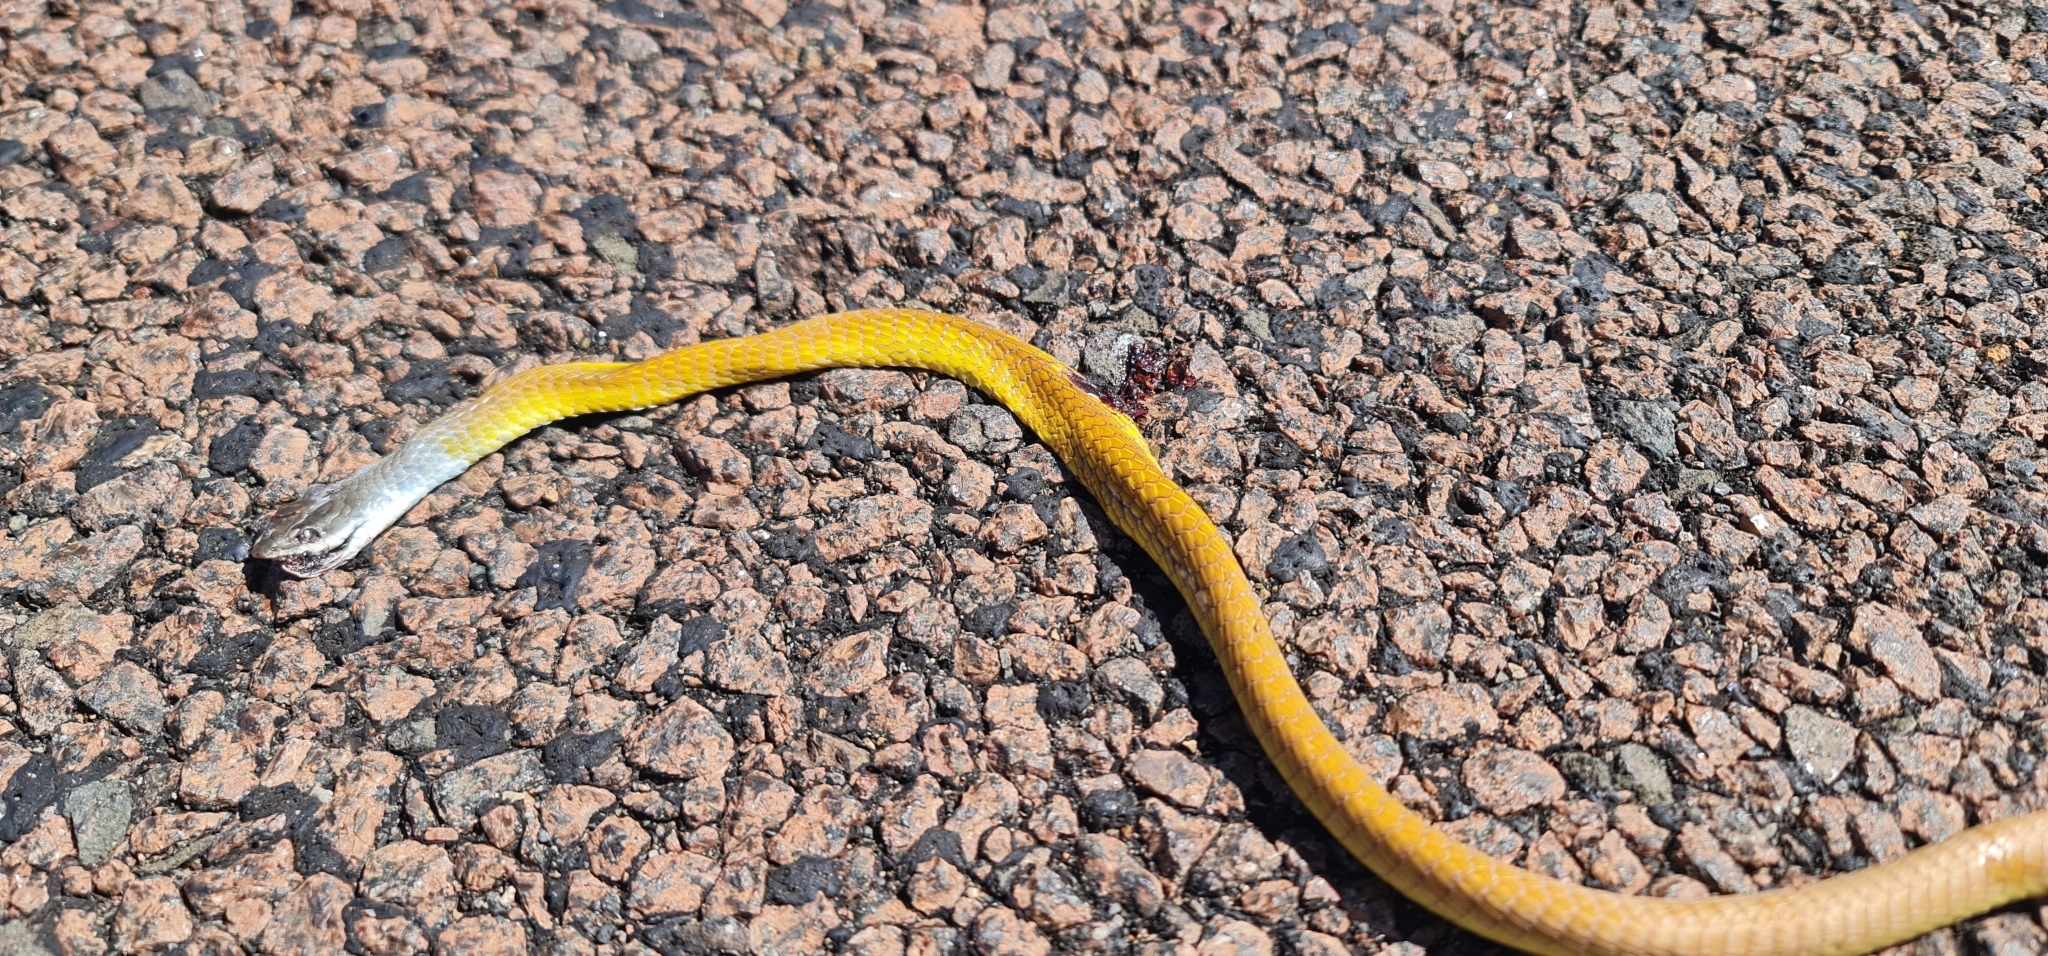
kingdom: Animalia
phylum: Chordata
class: Squamata
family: Colubridae
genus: Dendrelaphis
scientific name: Dendrelaphis punctulatus
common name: Common tree snake
